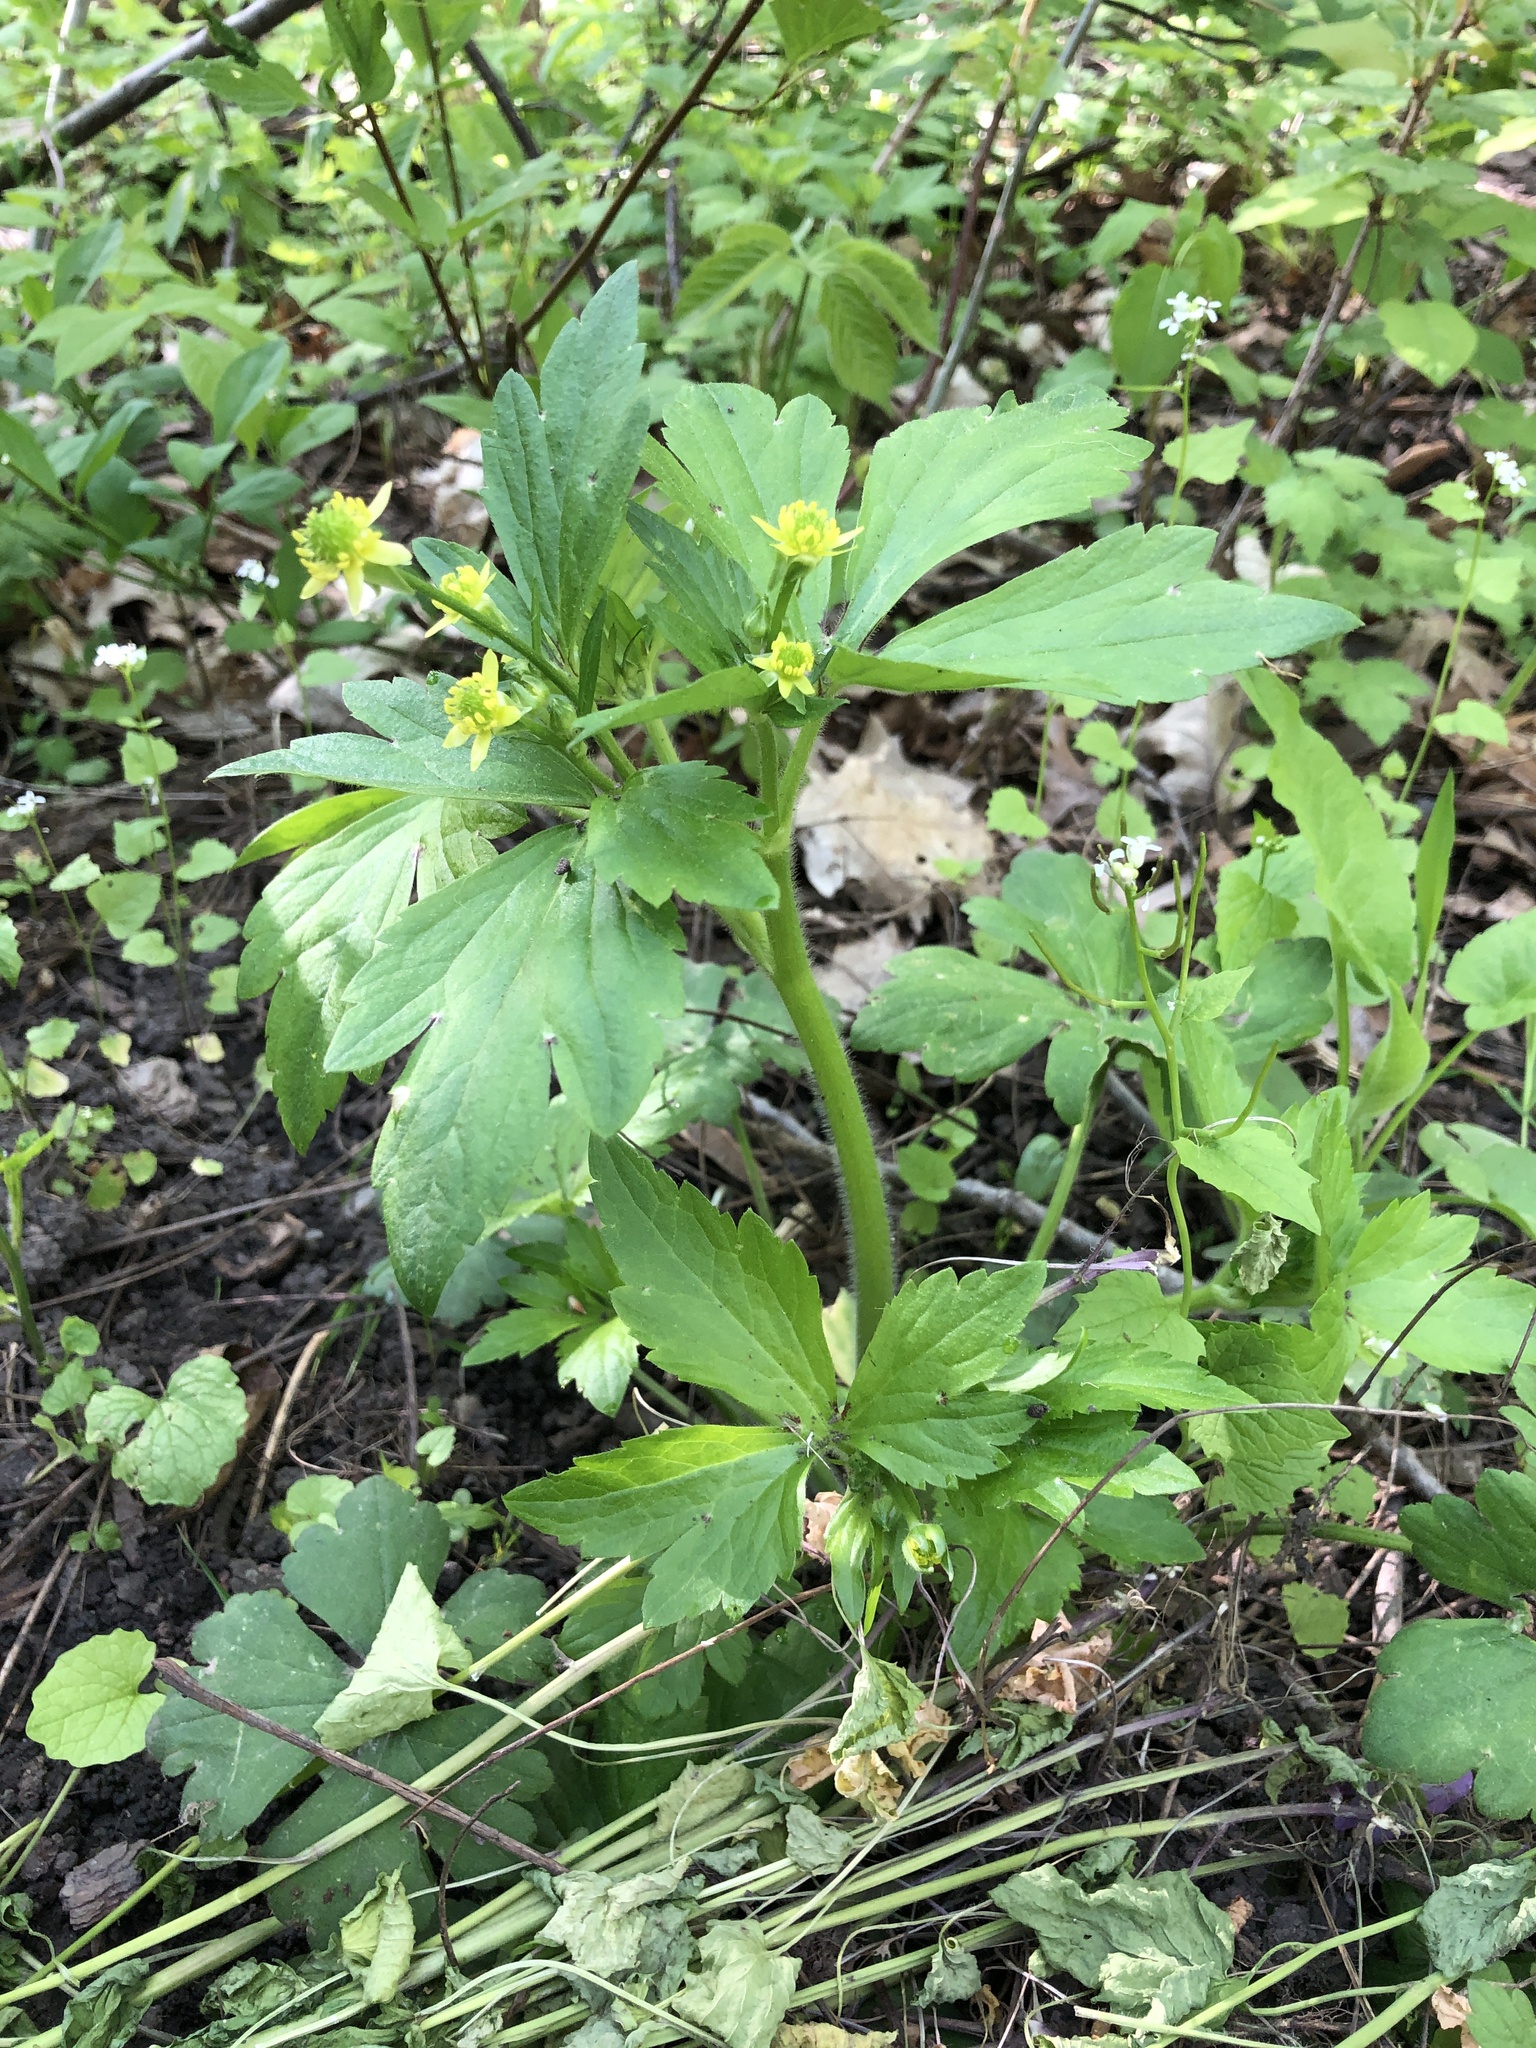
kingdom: Plantae
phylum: Tracheophyta
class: Magnoliopsida
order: Ranunculales
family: Ranunculaceae
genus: Ranunculus
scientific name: Ranunculus recurvatus
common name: Blisterwort
